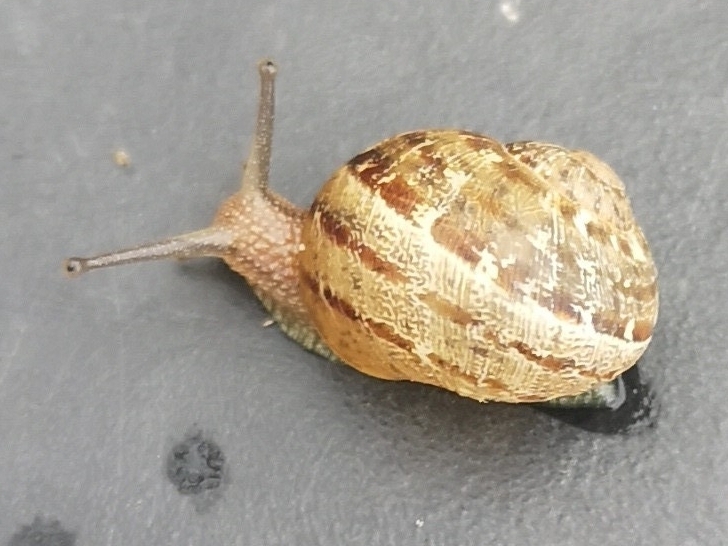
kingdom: Animalia
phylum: Mollusca
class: Gastropoda
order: Stylommatophora
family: Helicidae
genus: Cornu
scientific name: Cornu aspersum
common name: Brown garden snail
